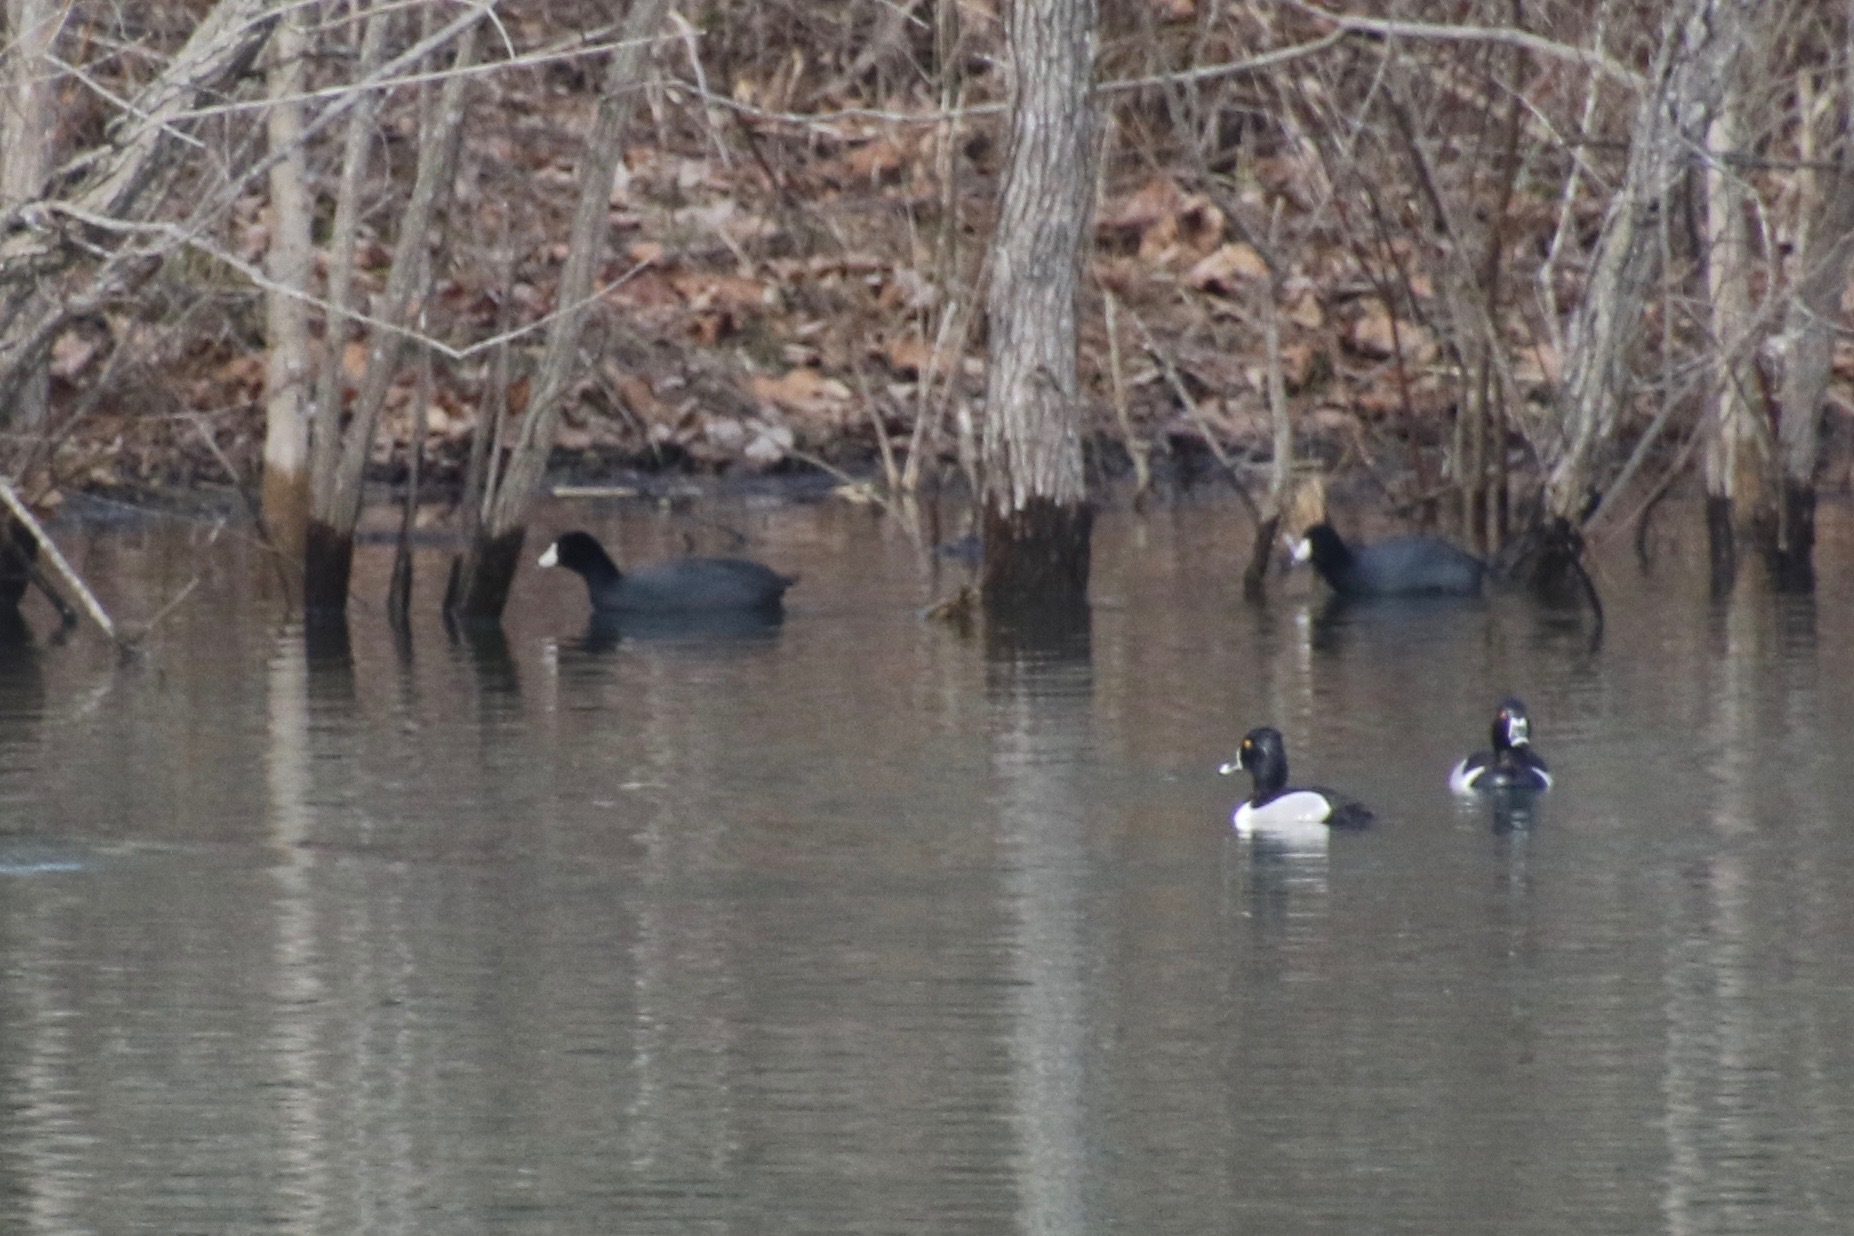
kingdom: Animalia
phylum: Chordata
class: Aves
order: Gruiformes
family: Rallidae
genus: Fulica
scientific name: Fulica americana
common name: American coot
